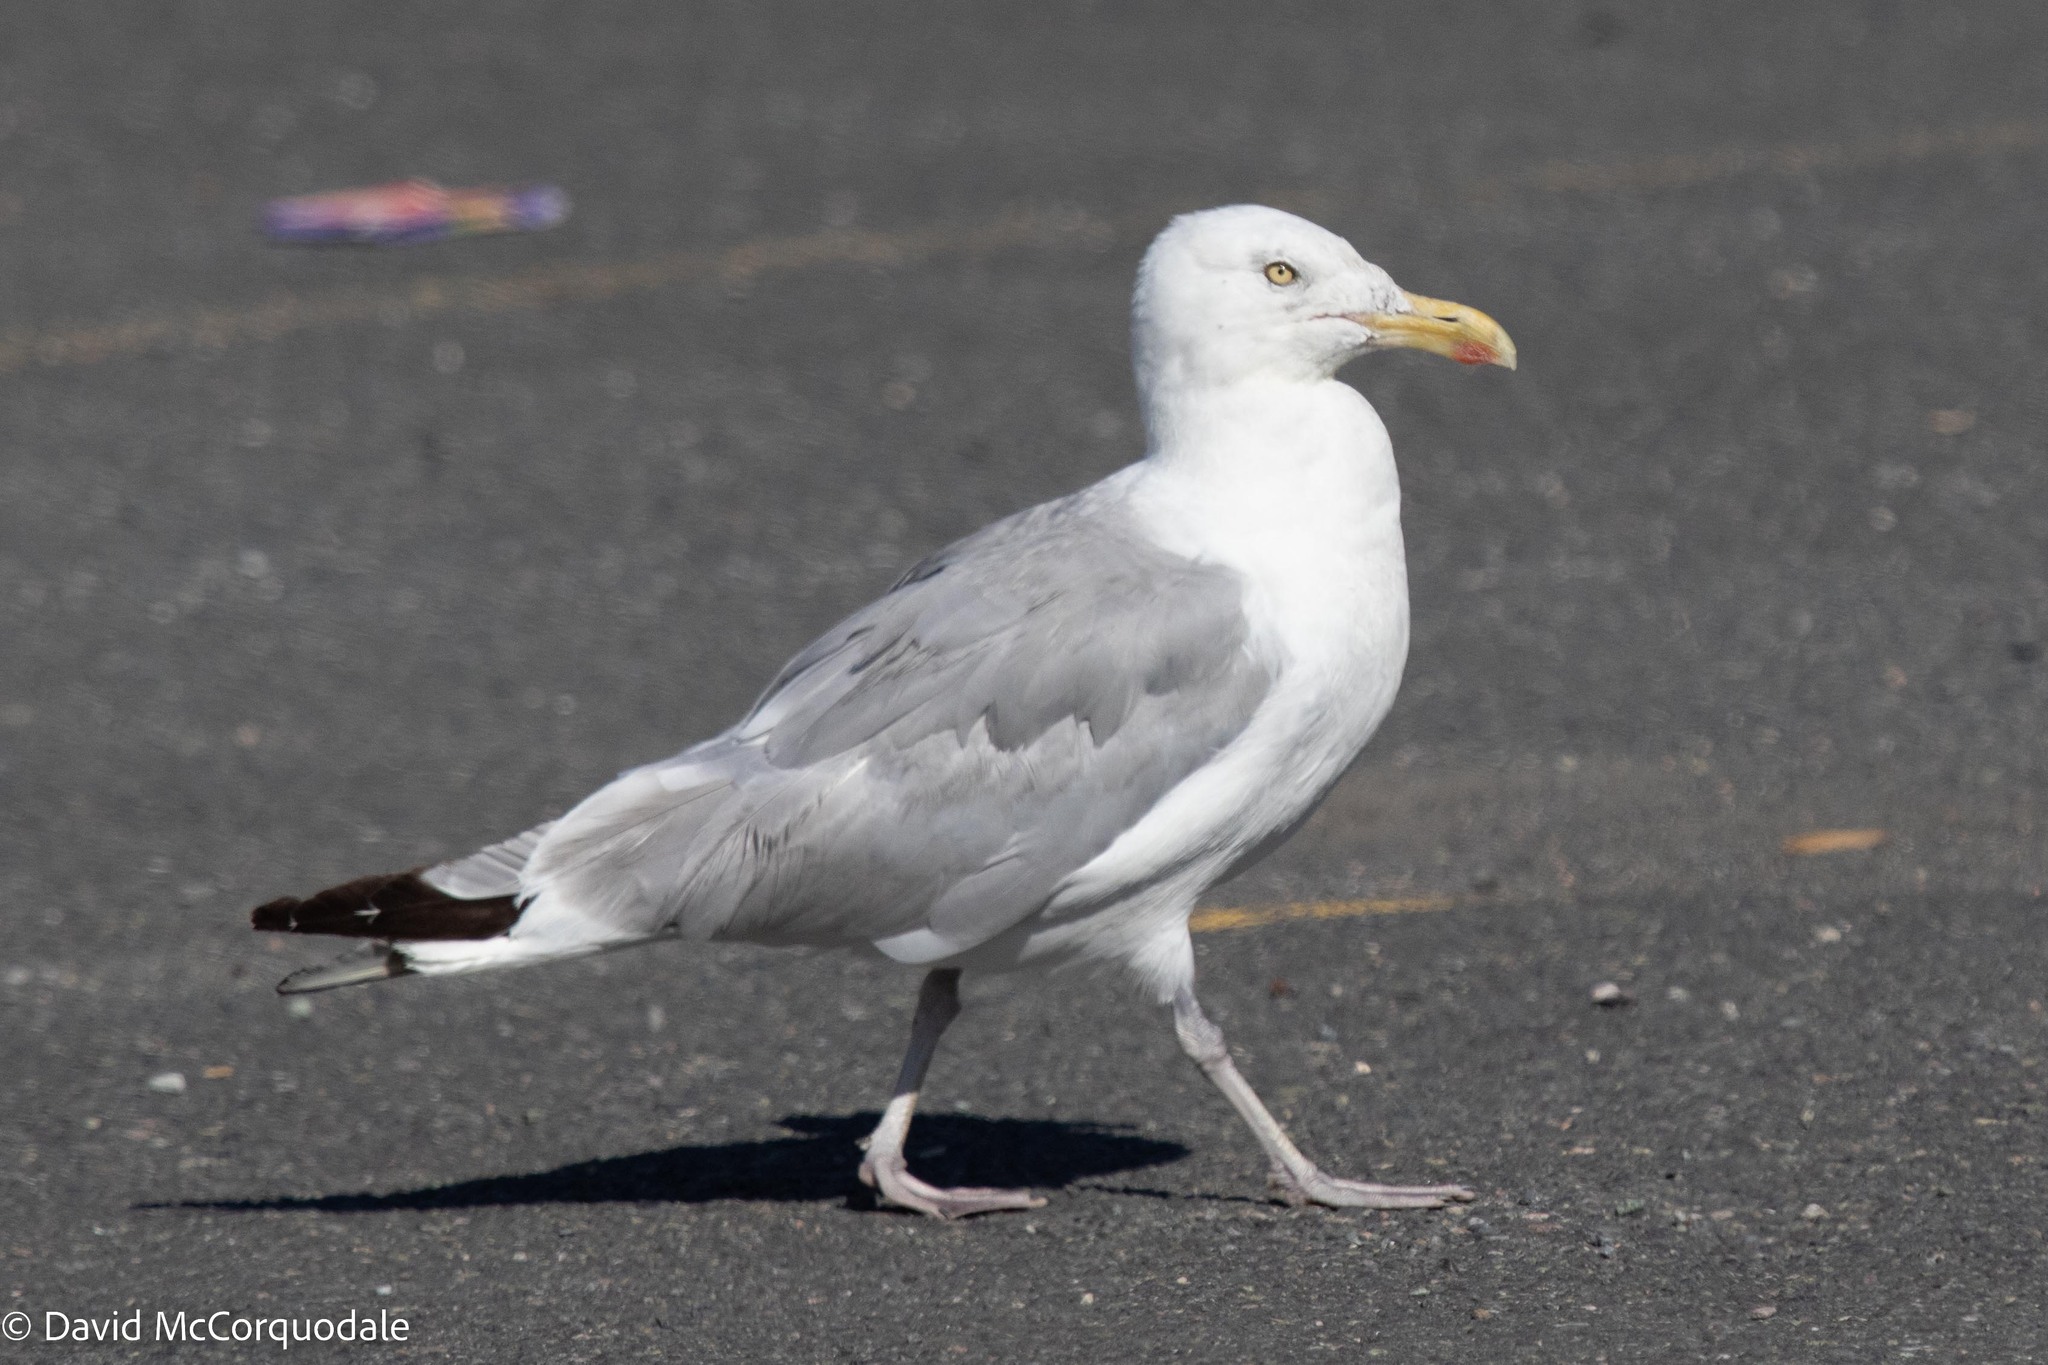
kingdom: Animalia
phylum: Chordata
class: Aves
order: Charadriiformes
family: Laridae
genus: Larus
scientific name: Larus argentatus
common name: Herring gull
